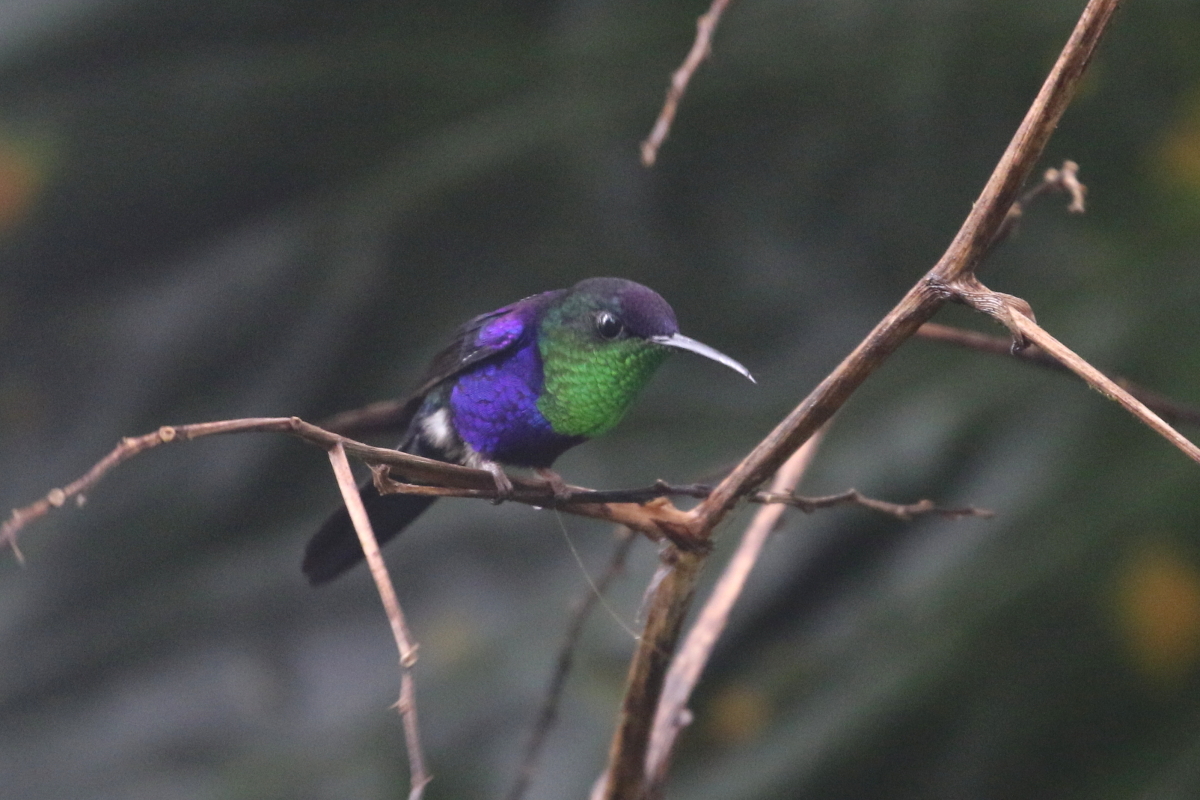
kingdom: Animalia
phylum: Chordata
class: Aves
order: Apodiformes
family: Trochilidae
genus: Thalurania
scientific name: Thalurania colombica
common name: Crowned woodnymph
